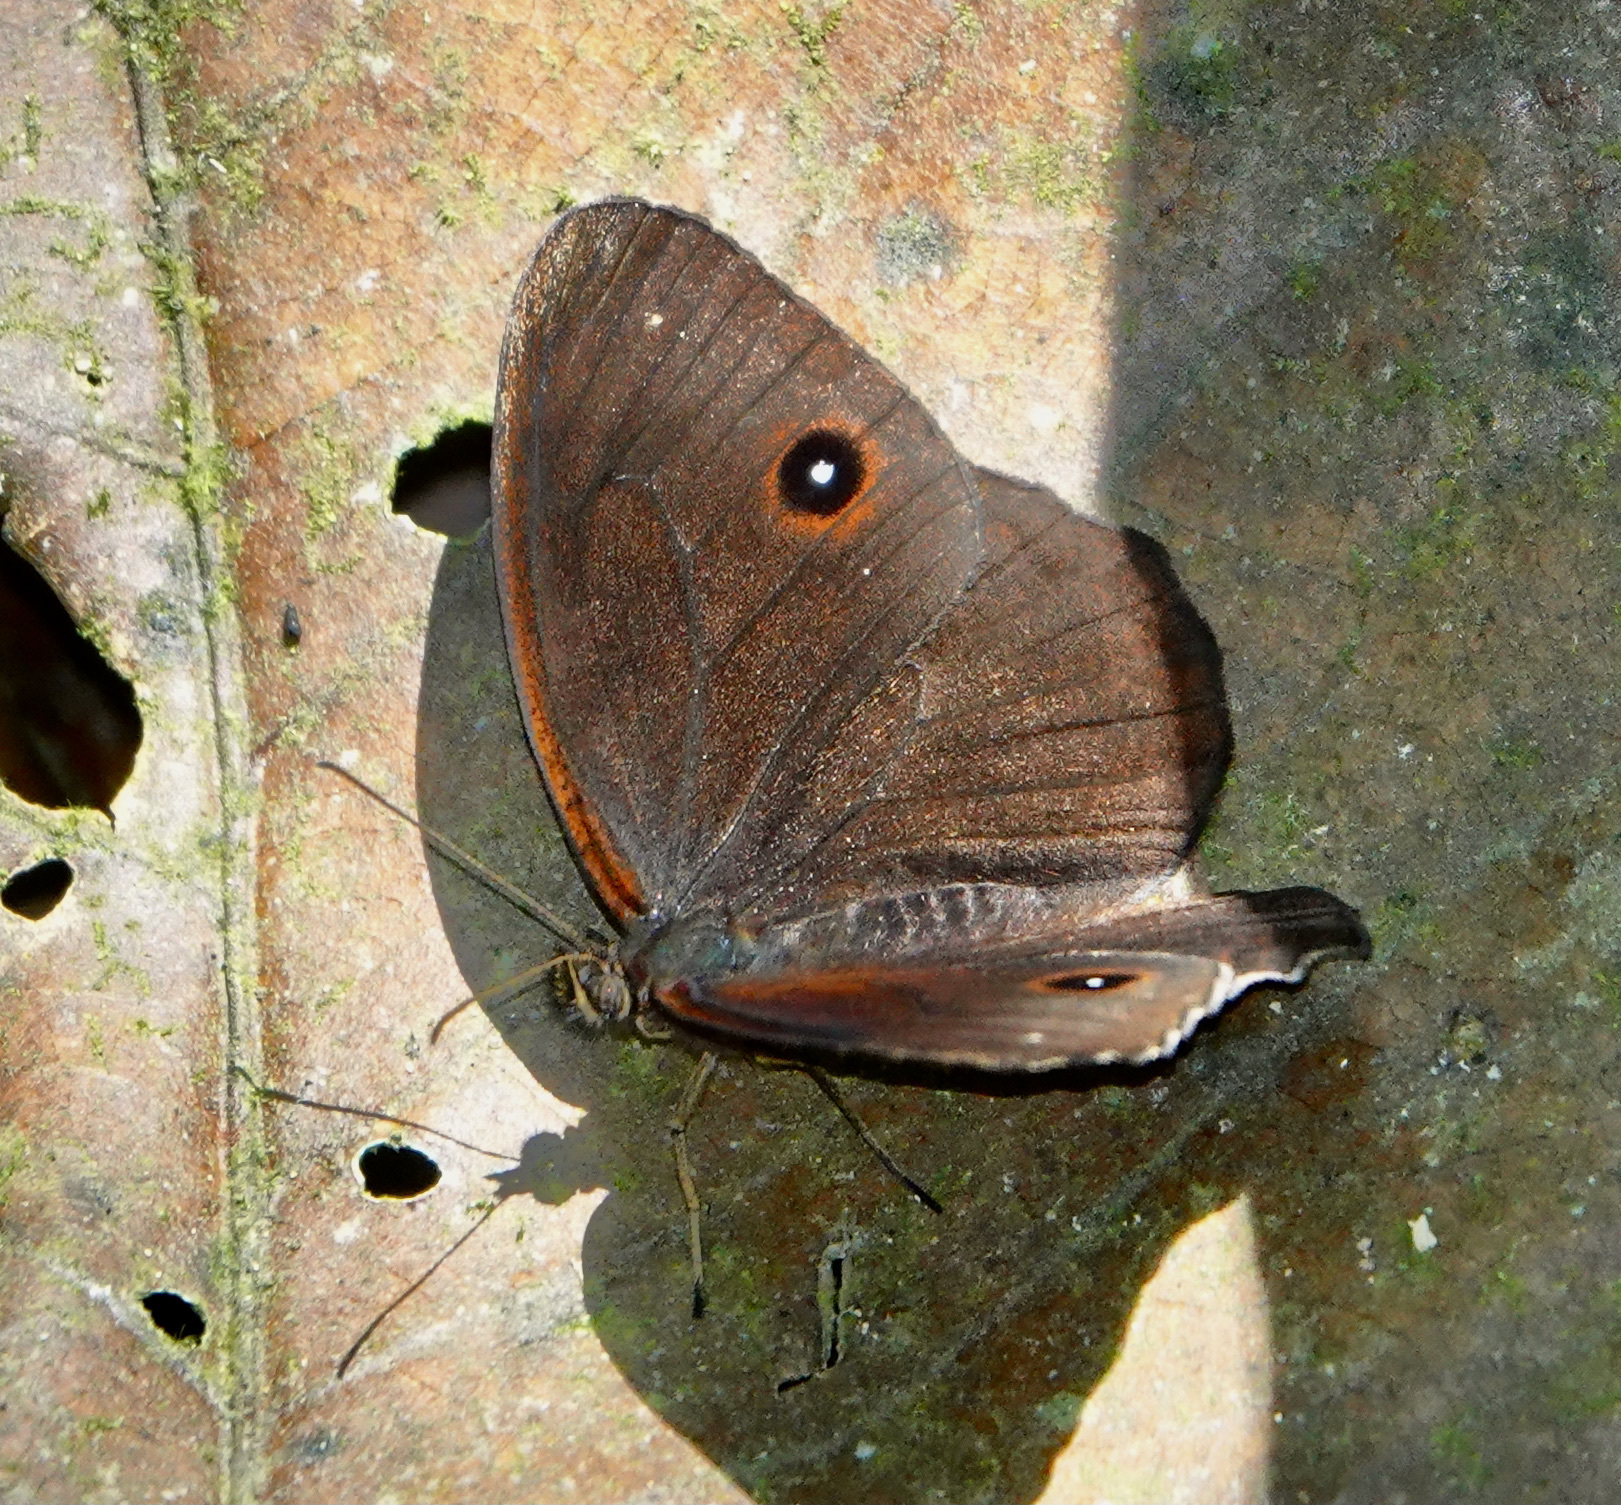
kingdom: Animalia
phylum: Arthropoda
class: Insecta
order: Lepidoptera
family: Nymphalidae
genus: Praepronophila
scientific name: Praepronophila perperna
